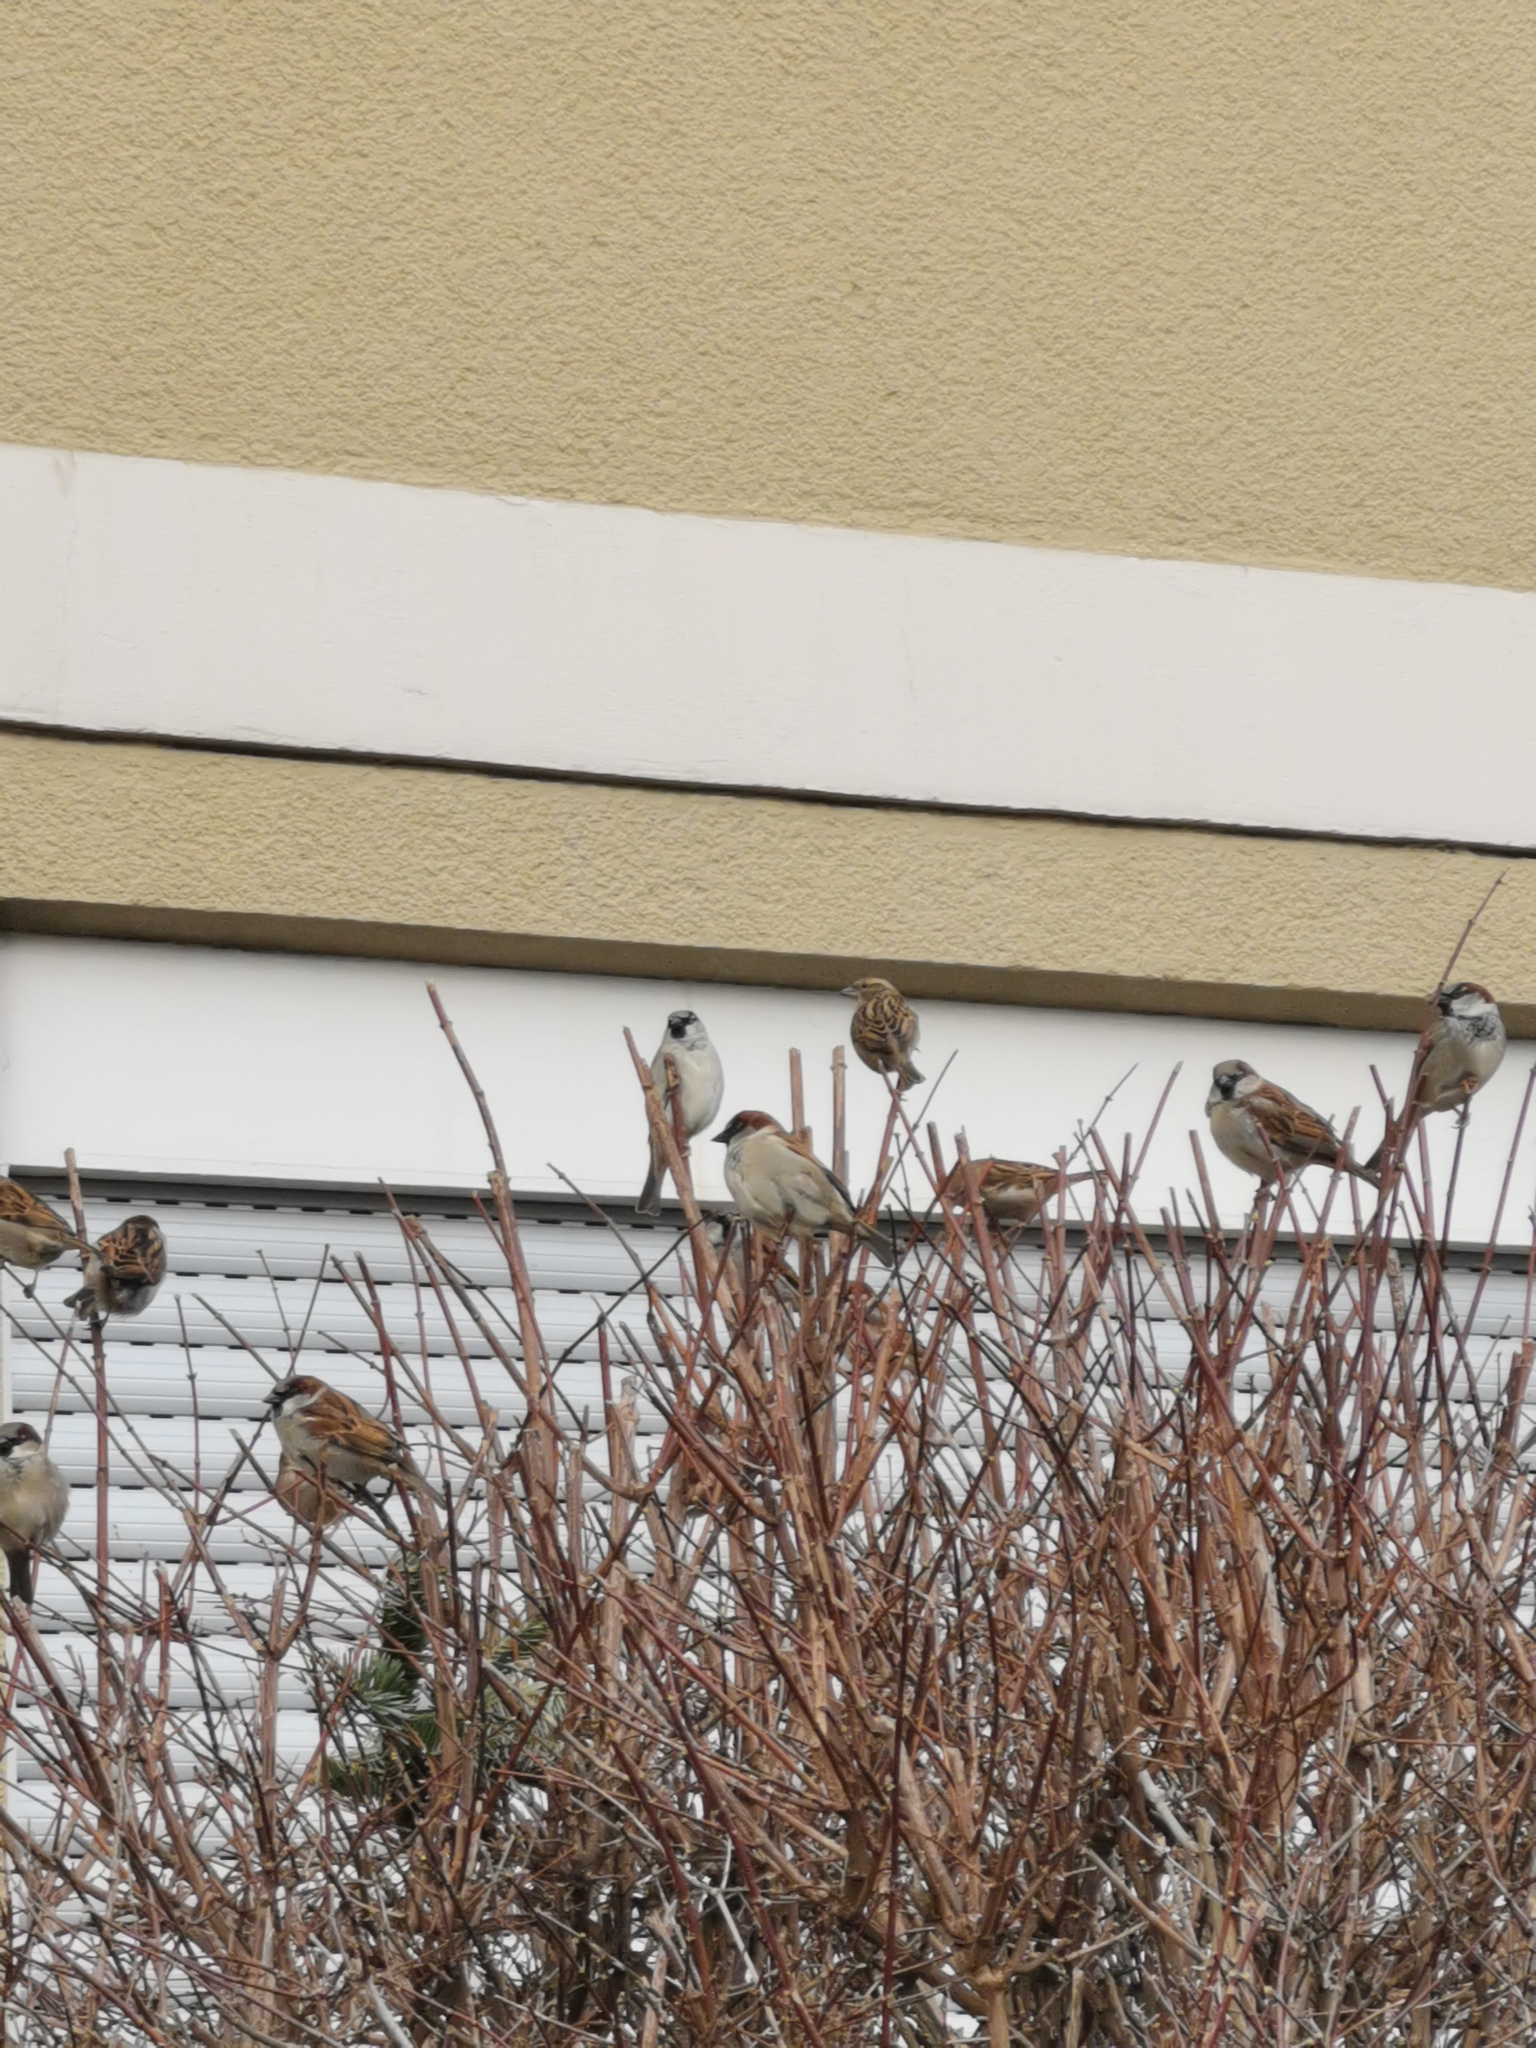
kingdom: Animalia
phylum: Chordata
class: Aves
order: Passeriformes
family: Passeridae
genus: Passer
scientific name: Passer domesticus
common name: House sparrow
